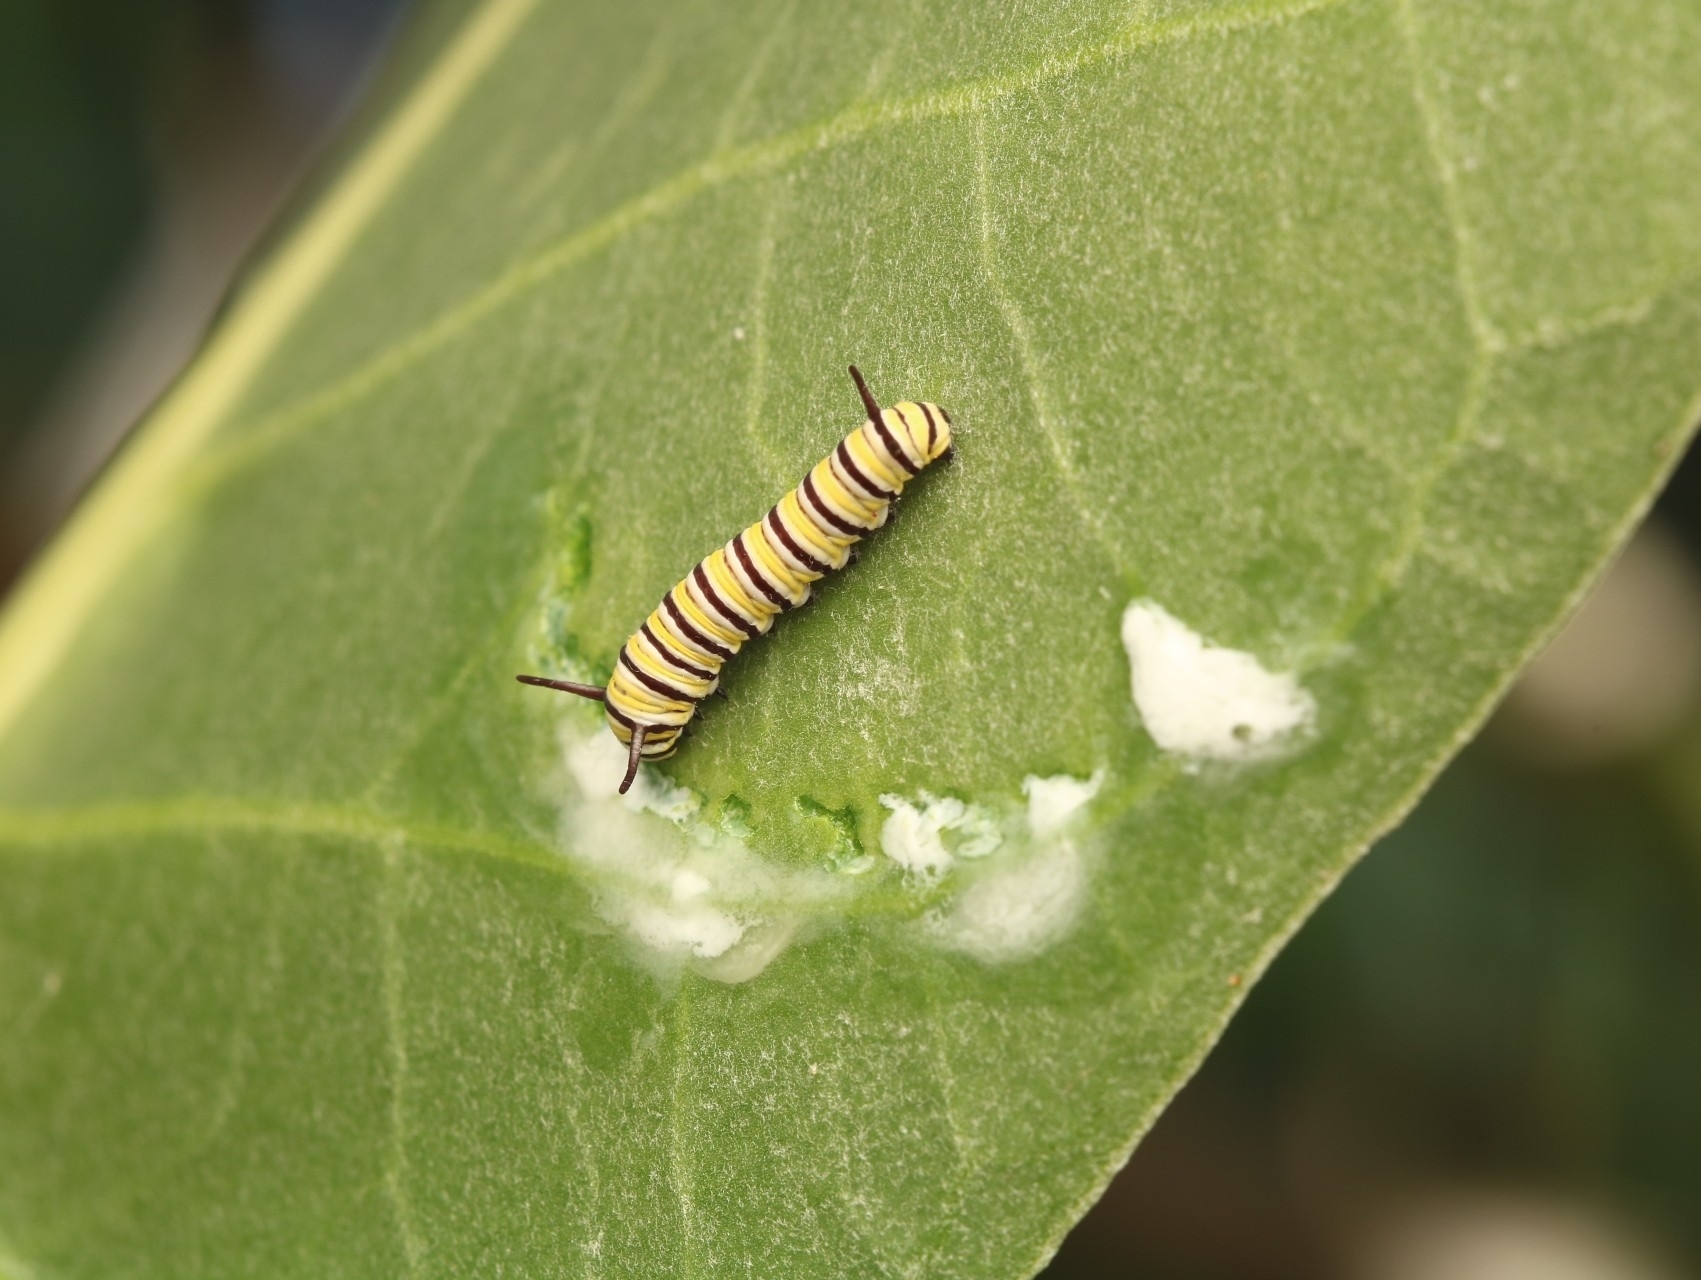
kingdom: Animalia
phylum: Arthropoda
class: Insecta
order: Lepidoptera
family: Nymphalidae
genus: Danaus
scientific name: Danaus plexippus
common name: Monarch
